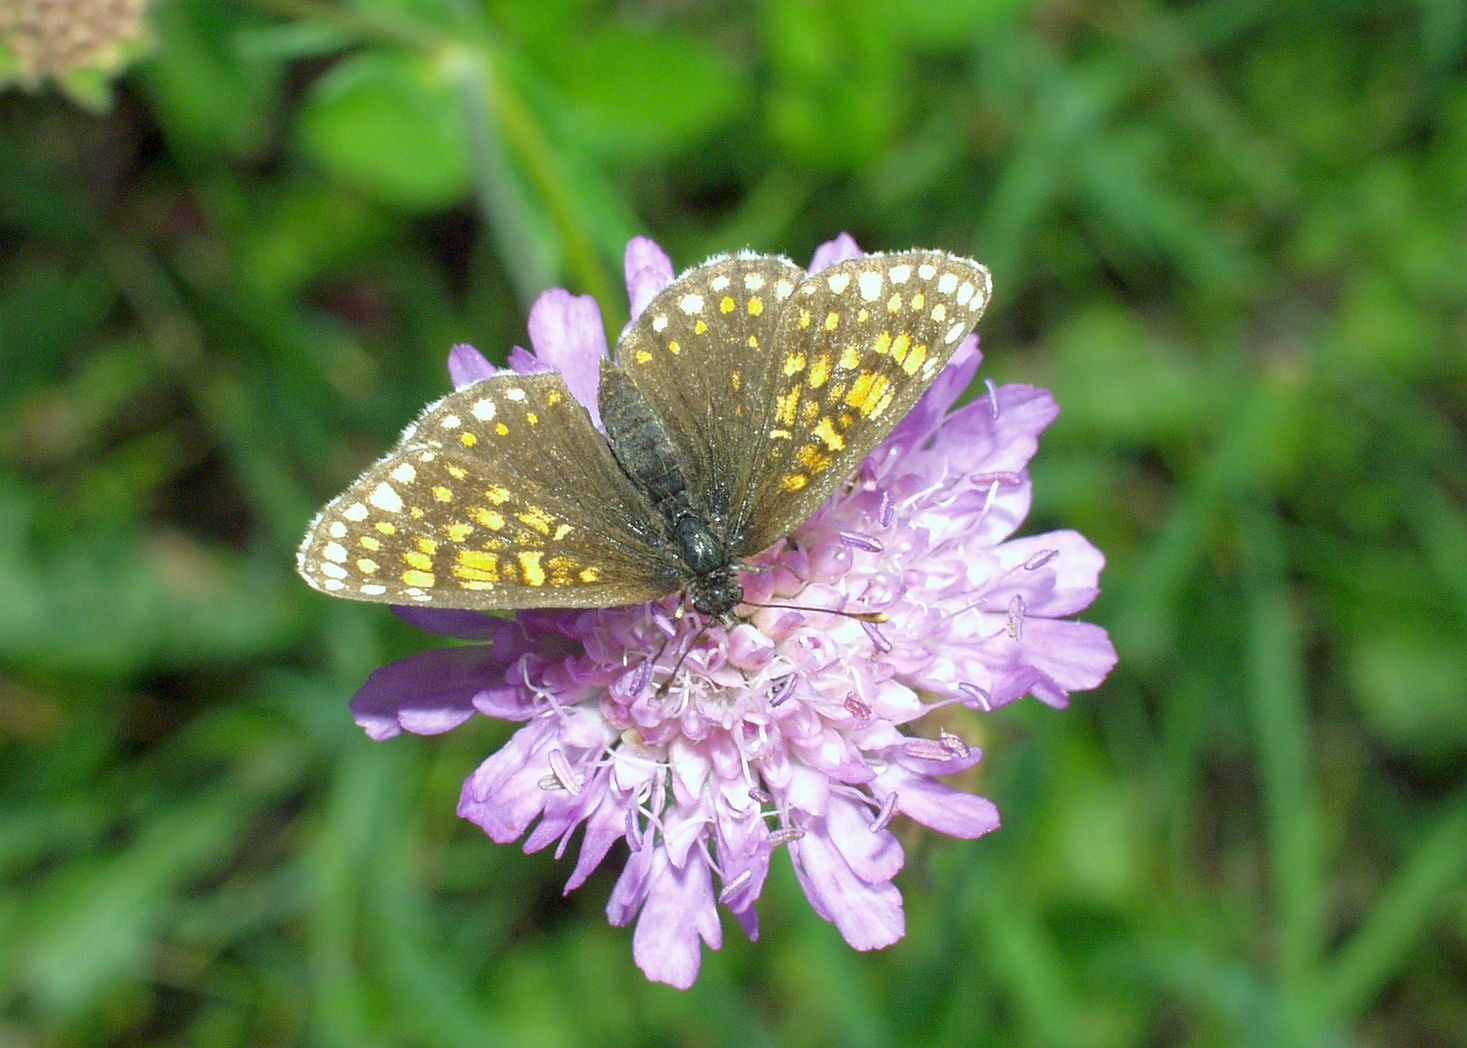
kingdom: Animalia
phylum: Arthropoda
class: Insecta
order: Lepidoptera
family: Nymphalidae
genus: Melitaea
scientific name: Melitaea diamina
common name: False heath fritillary
